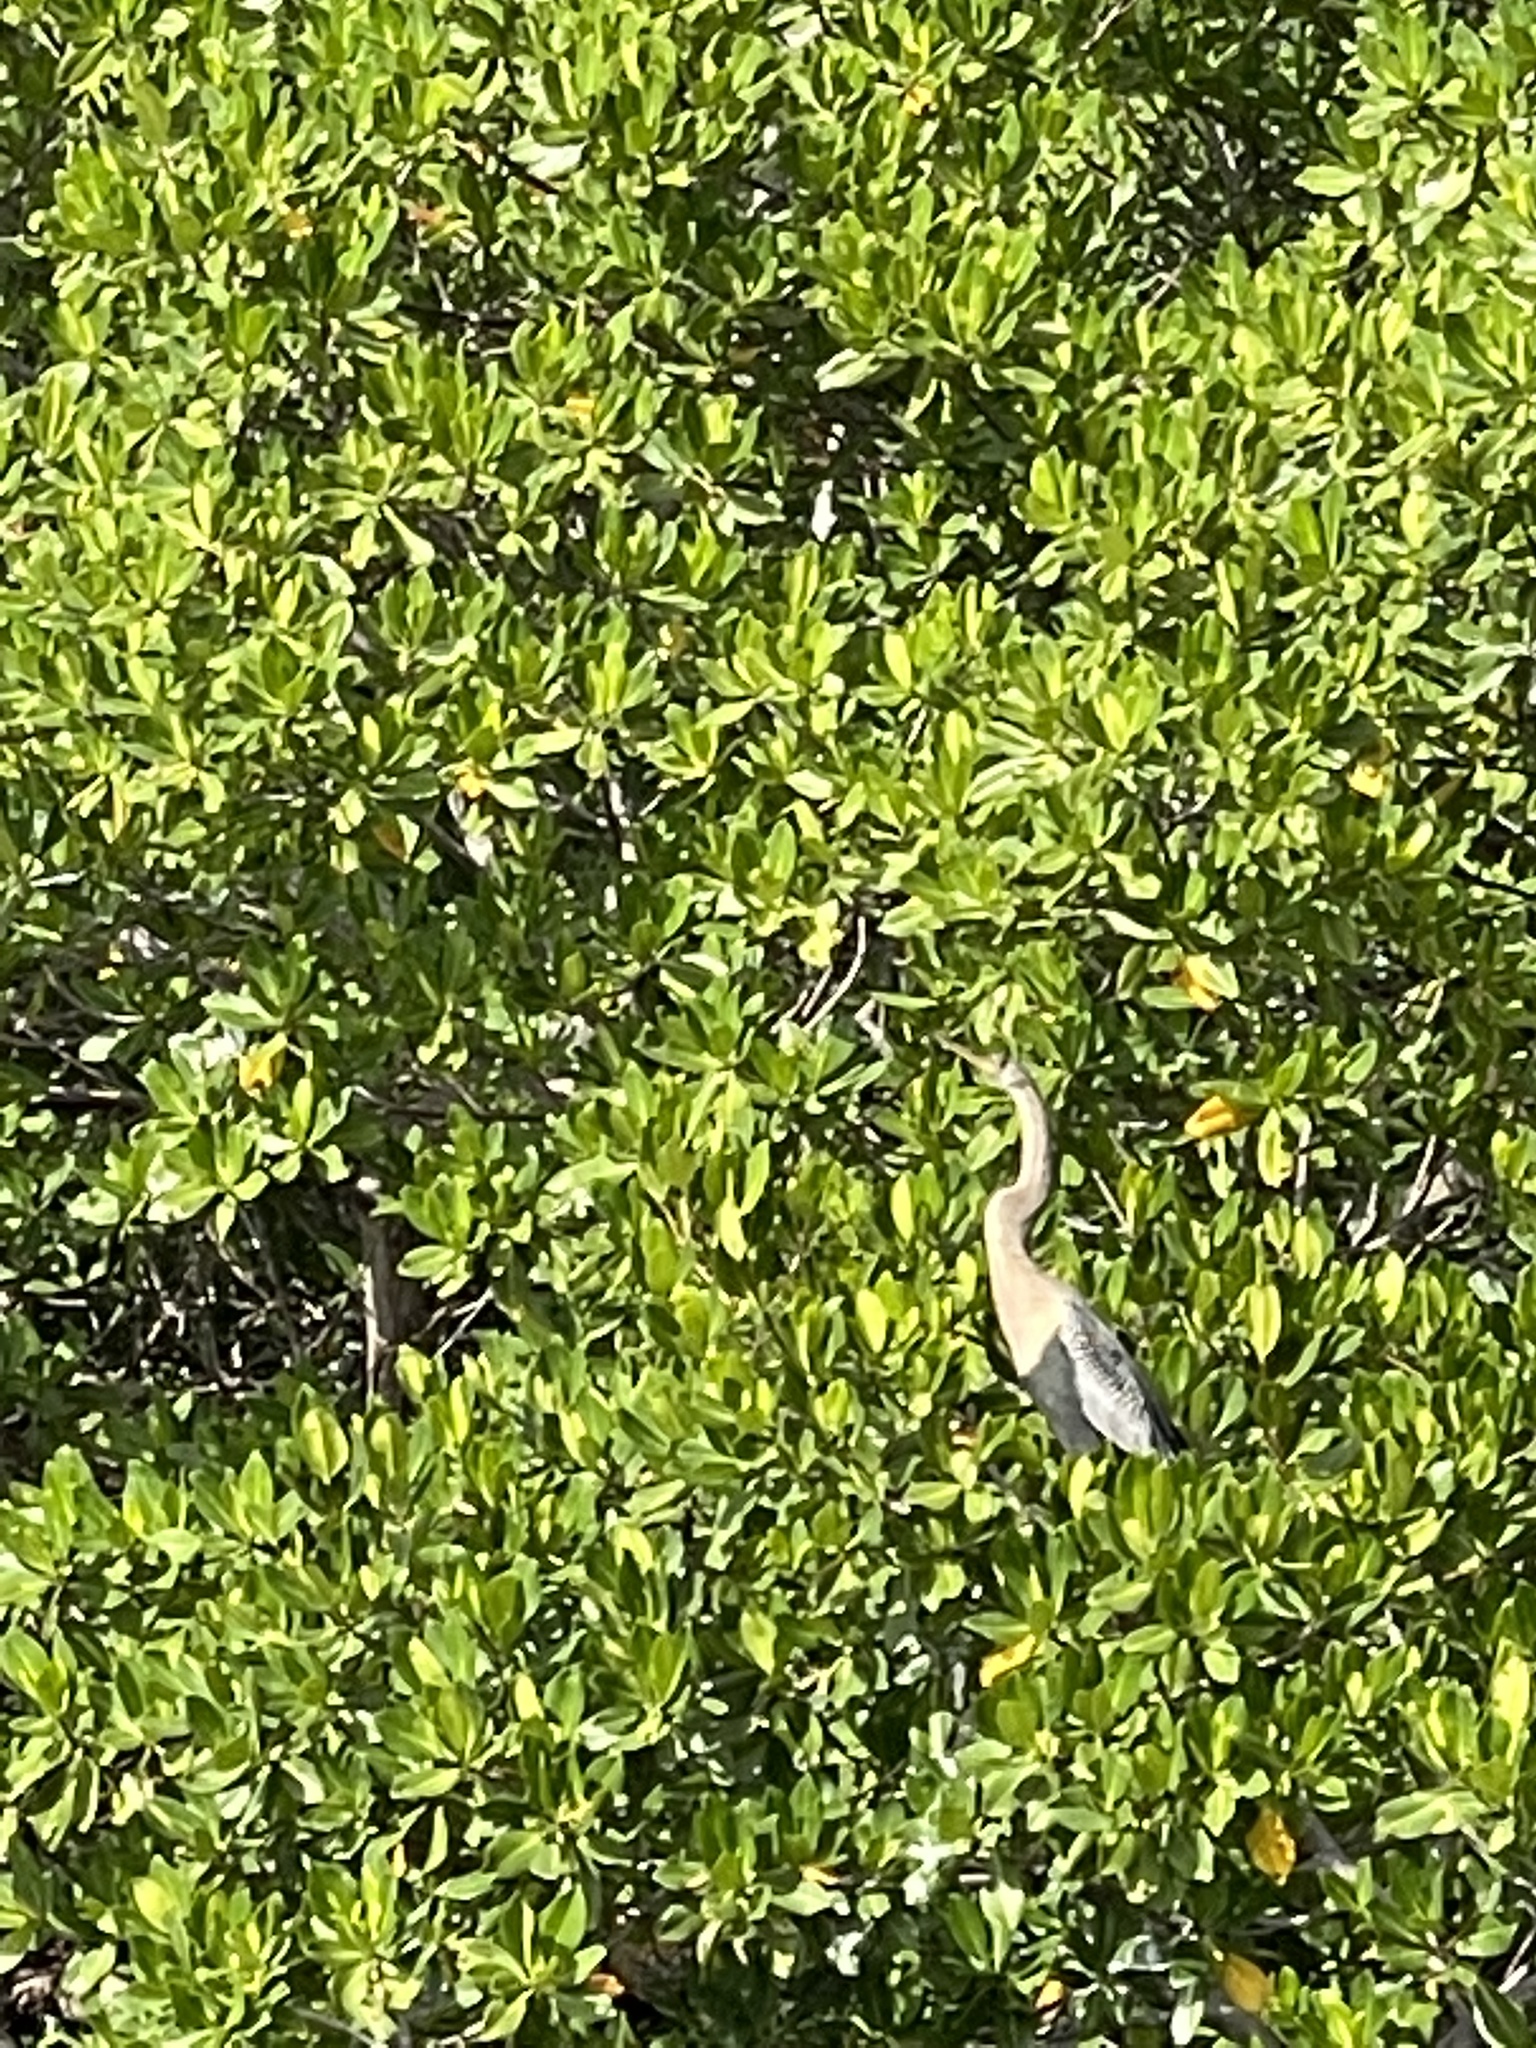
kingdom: Animalia
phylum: Chordata
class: Aves
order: Suliformes
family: Anhingidae
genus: Anhinga
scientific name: Anhinga anhinga
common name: Anhinga
